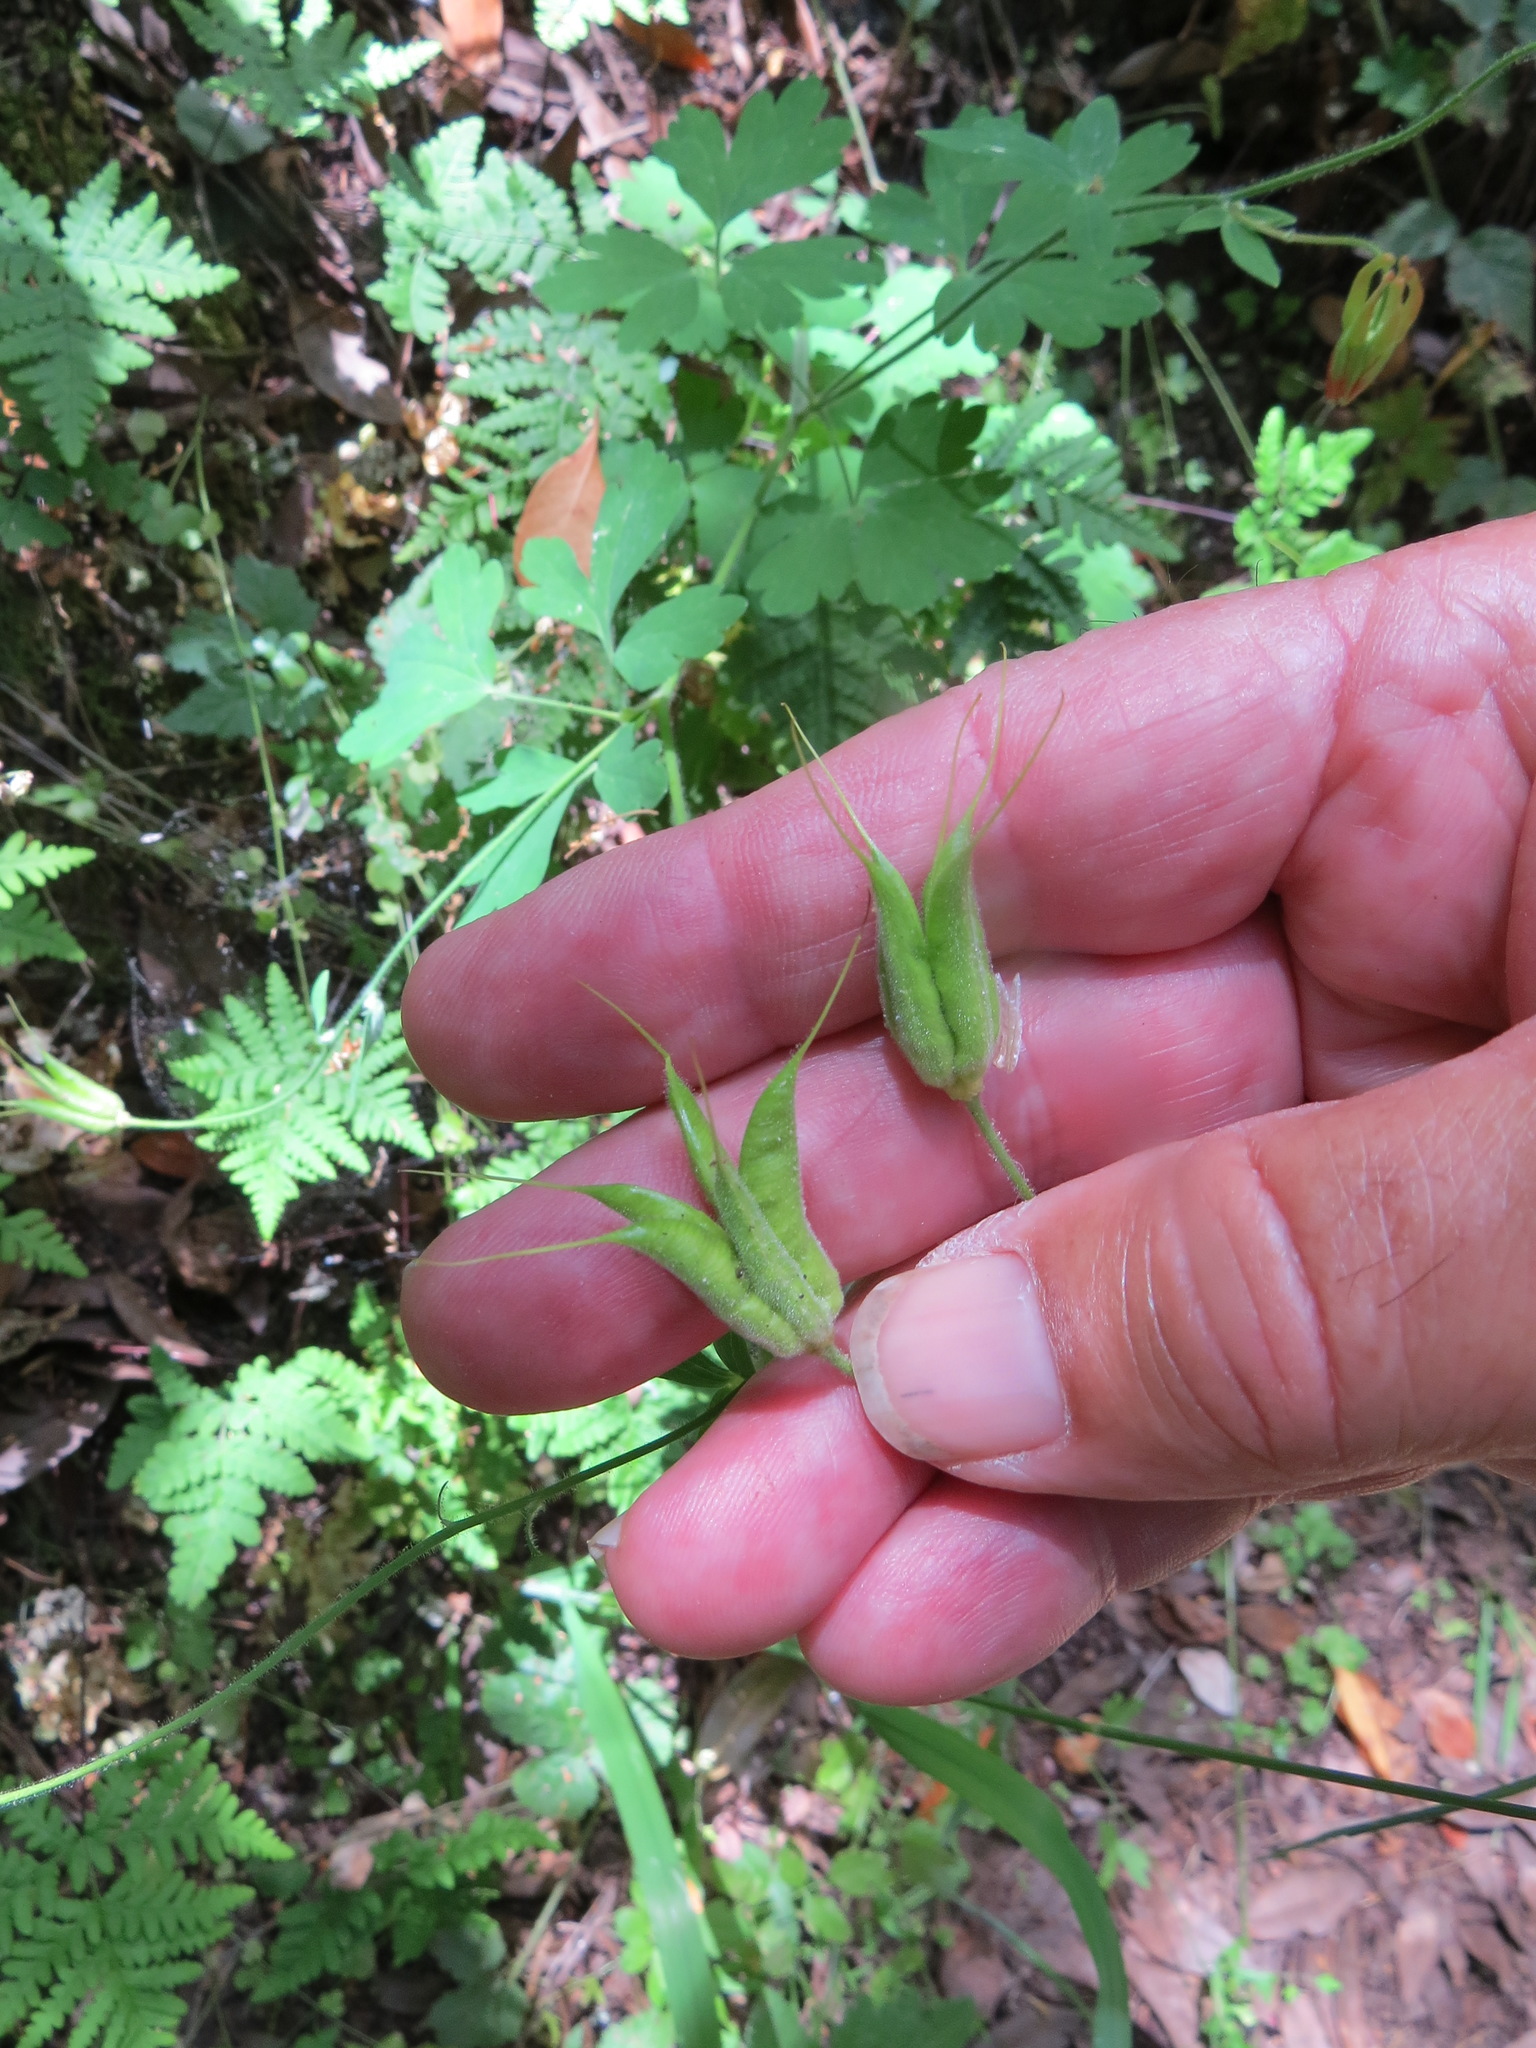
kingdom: Plantae
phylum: Tracheophyta
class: Magnoliopsida
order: Ranunculales
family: Ranunculaceae
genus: Aquilegia
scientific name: Aquilegia formosa
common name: Sitka columbine
